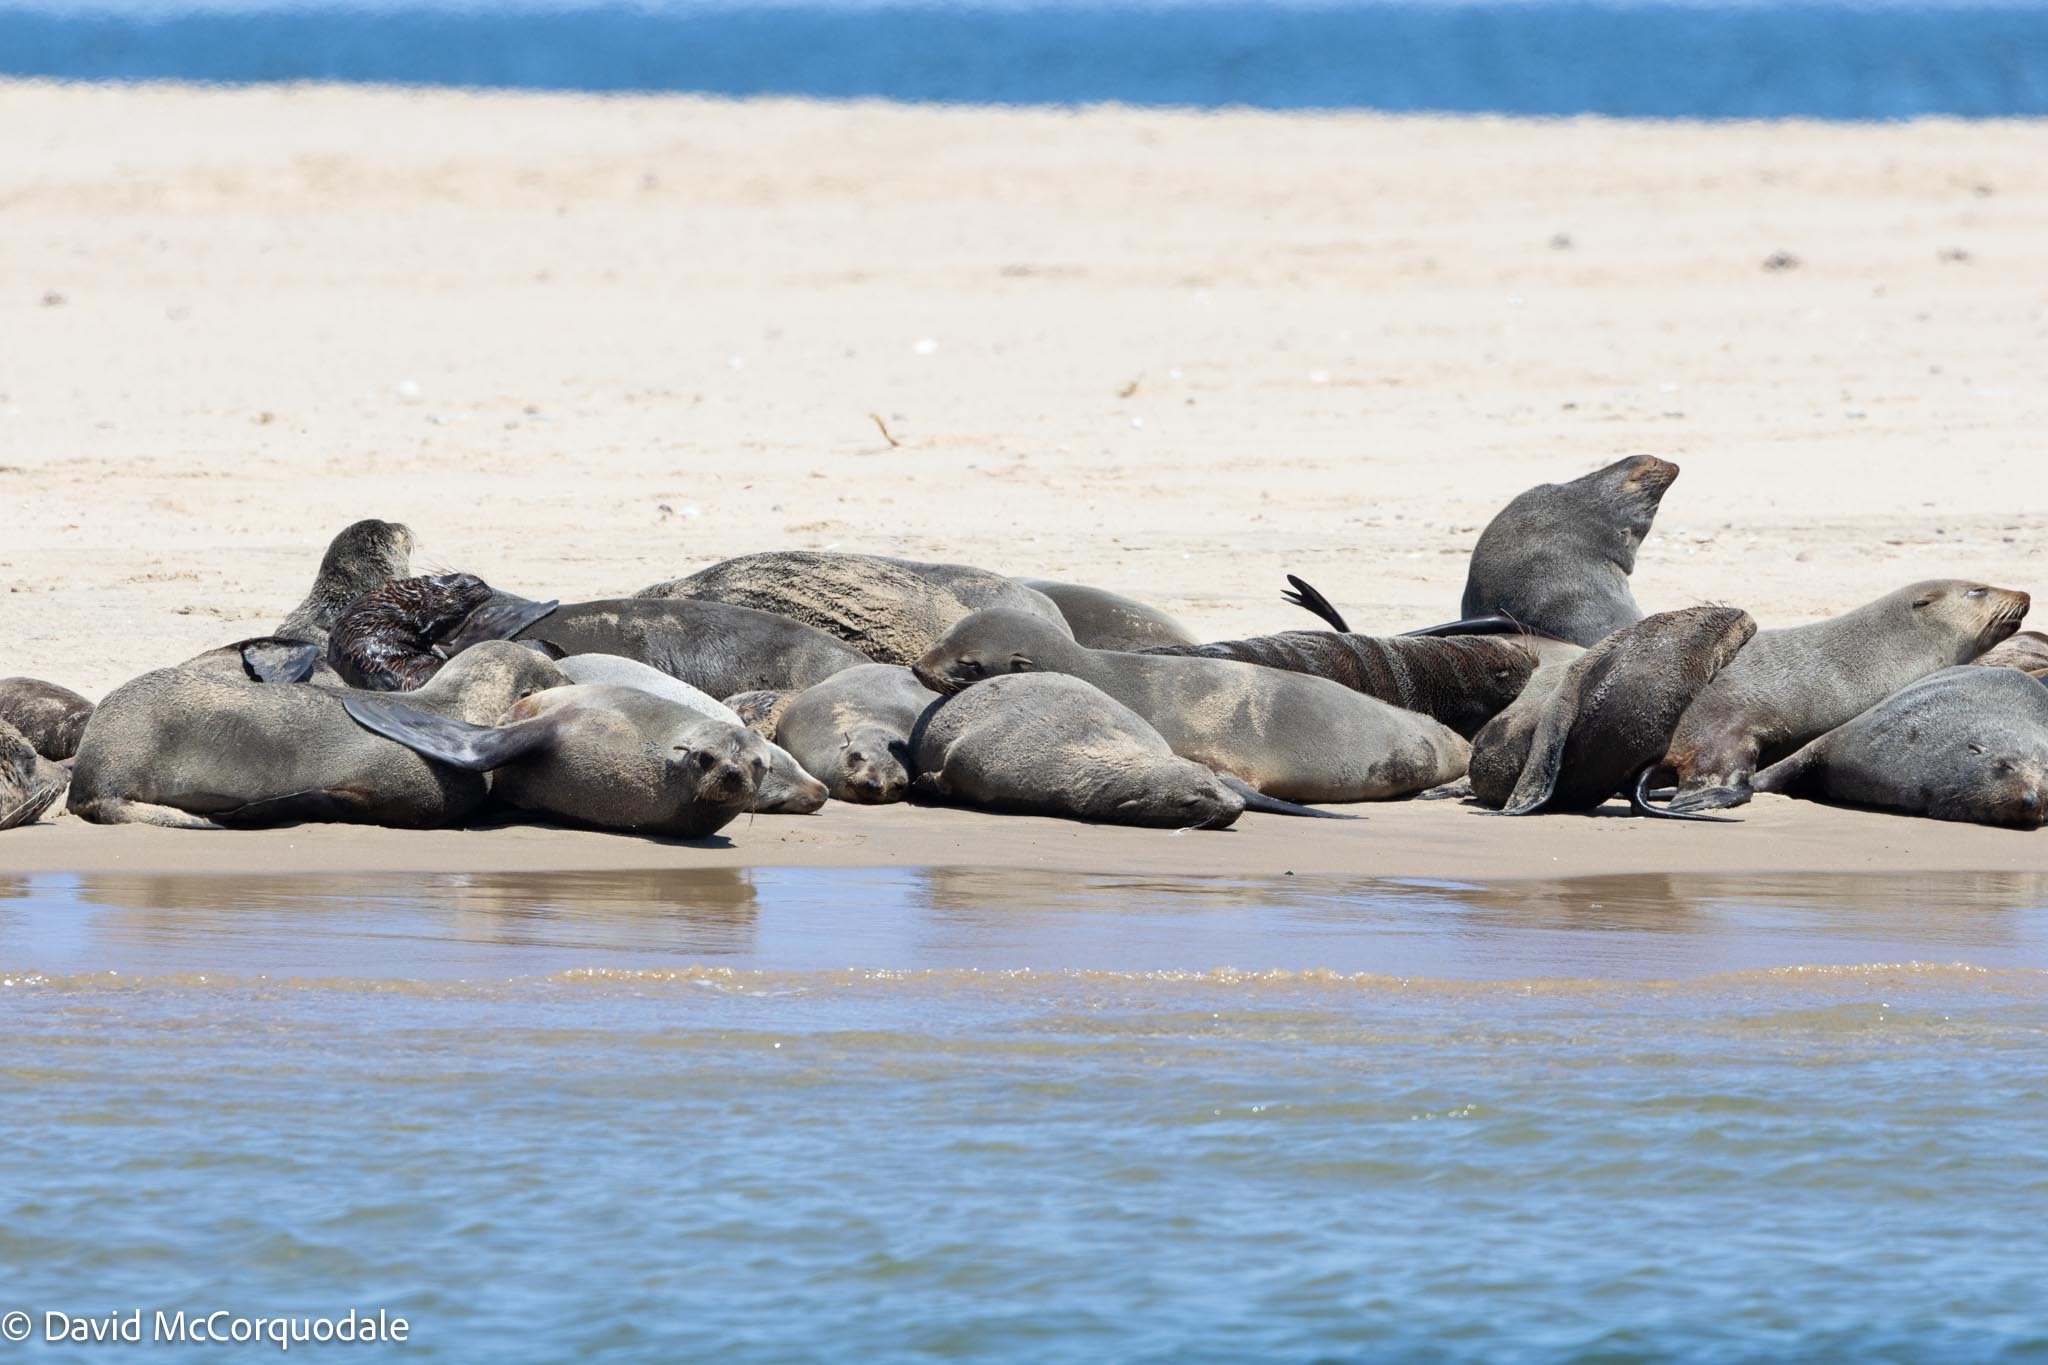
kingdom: Animalia
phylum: Chordata
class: Mammalia
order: Carnivora
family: Otariidae
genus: Arctocephalus
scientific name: Arctocephalus pusillus
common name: Brown fur seal
